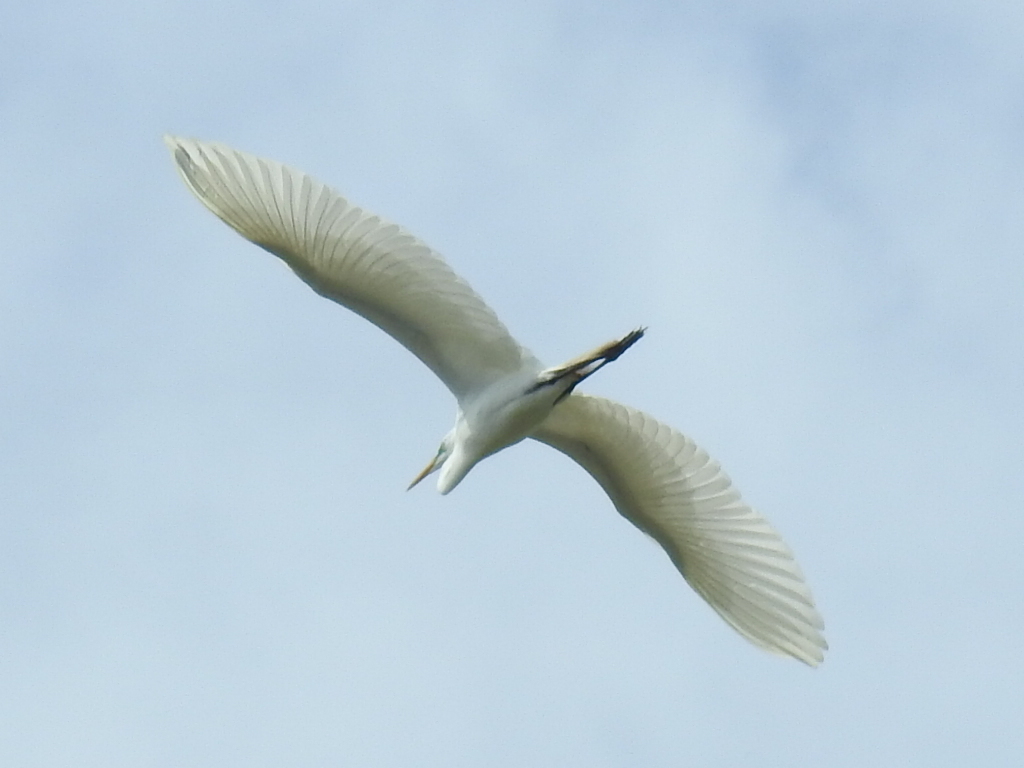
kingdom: Animalia
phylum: Chordata
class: Aves
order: Pelecaniformes
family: Ardeidae
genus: Ardea
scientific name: Ardea alba
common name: Great egret
